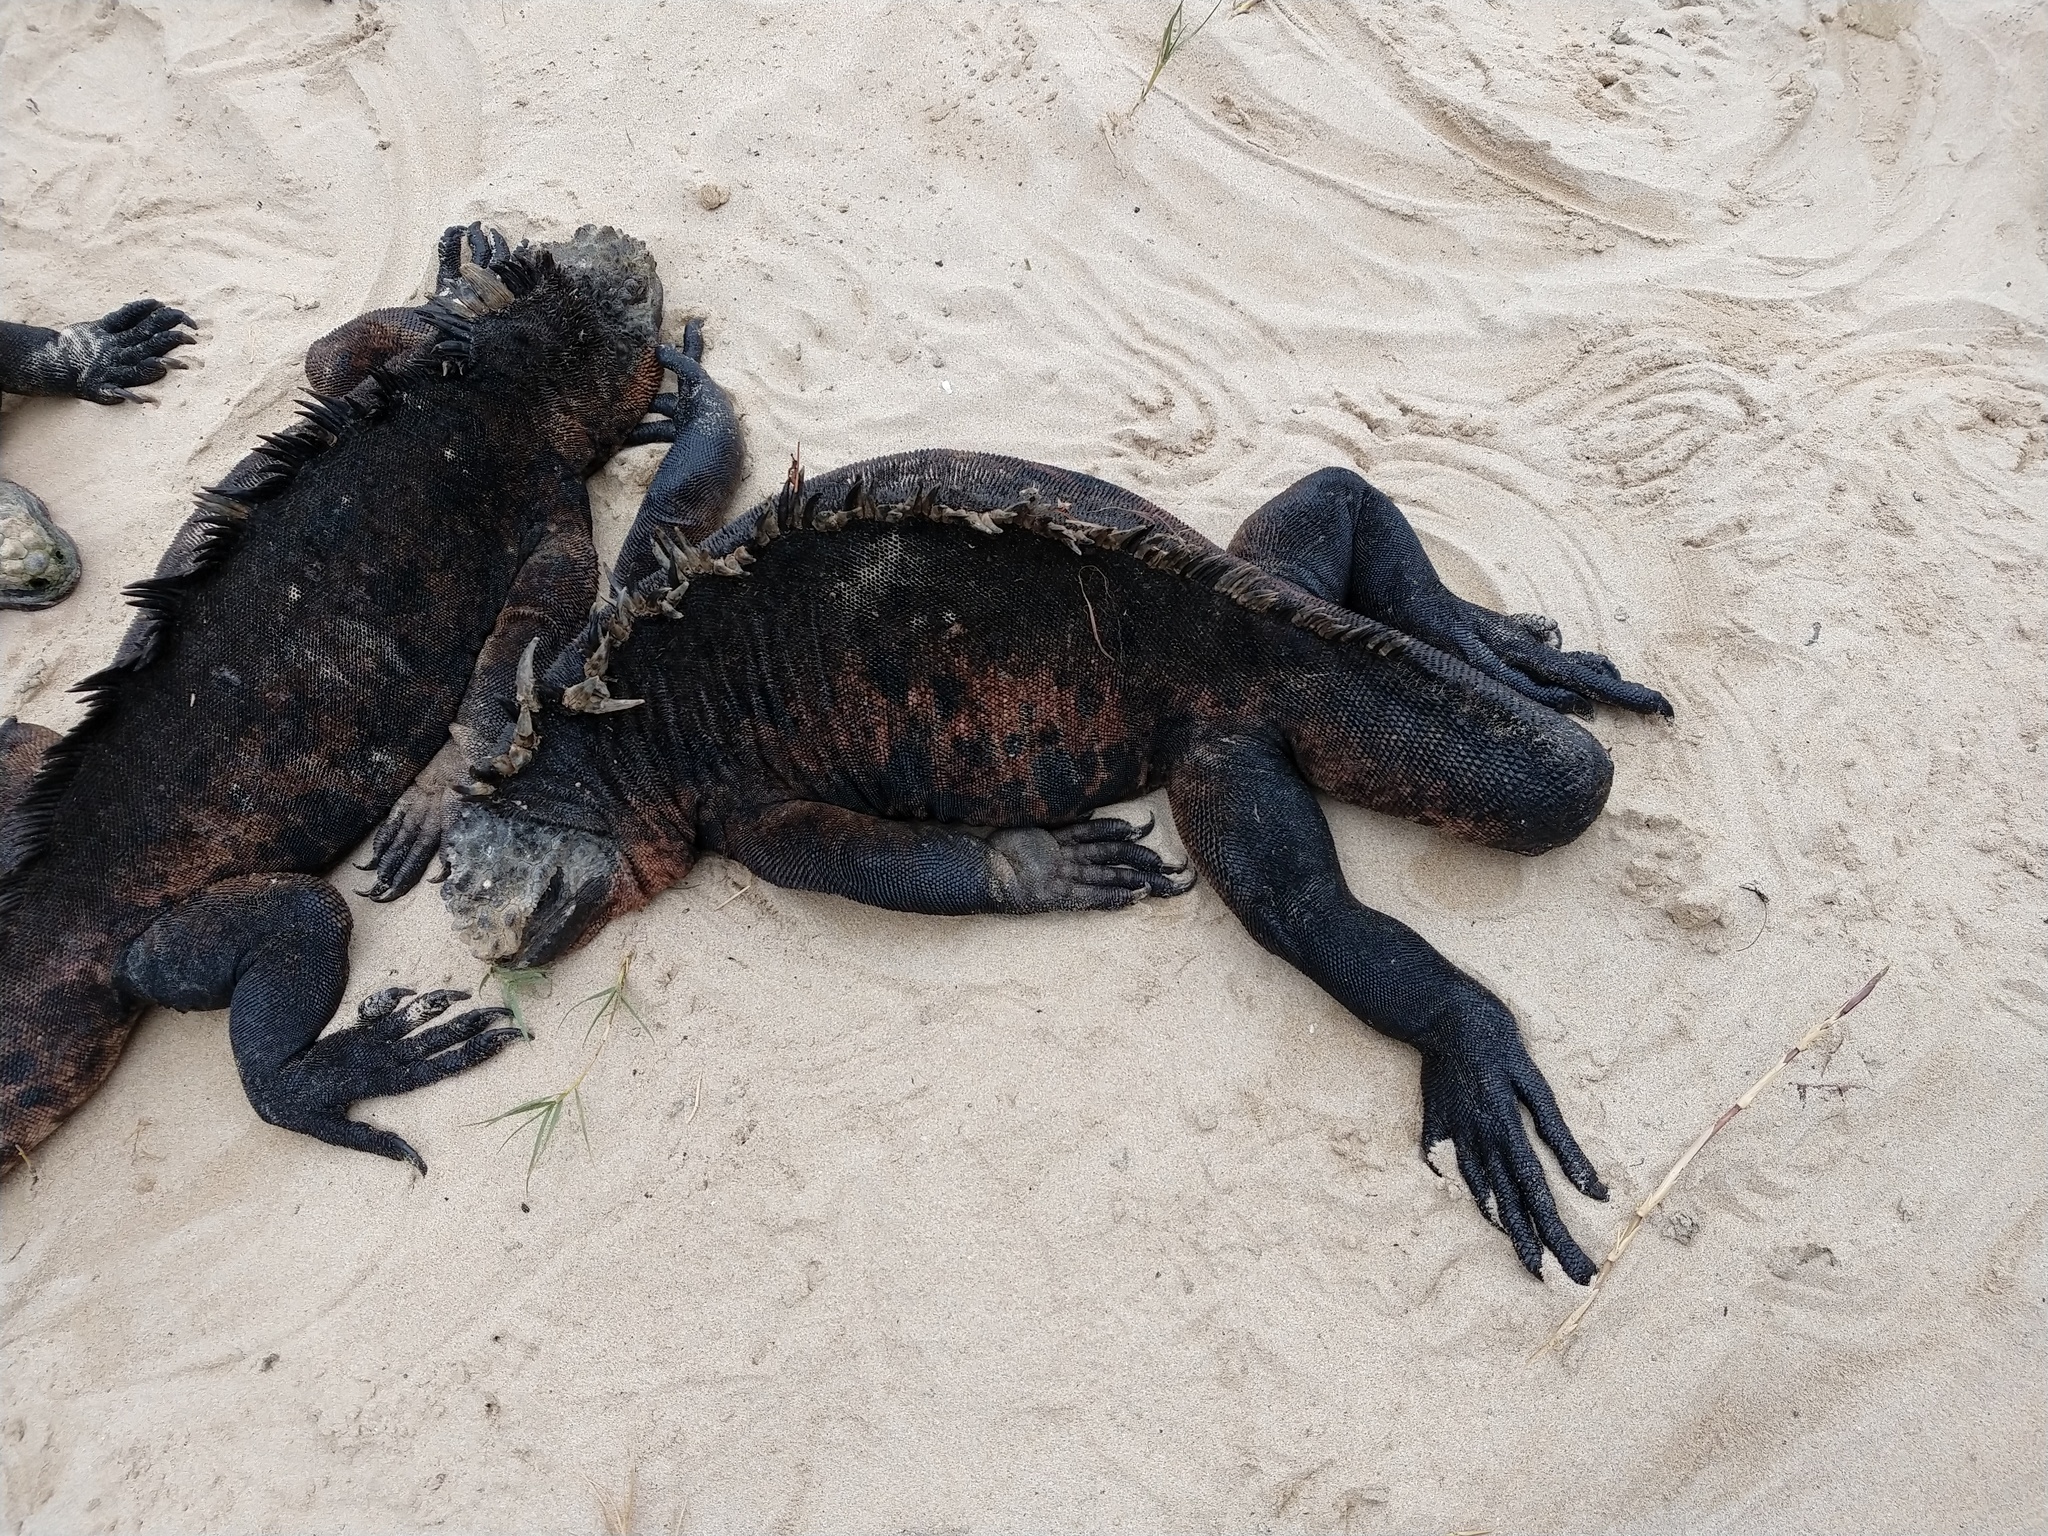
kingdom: Animalia
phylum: Chordata
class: Squamata
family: Iguanidae
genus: Amblyrhynchus
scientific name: Amblyrhynchus cristatus
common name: Marine iguana
